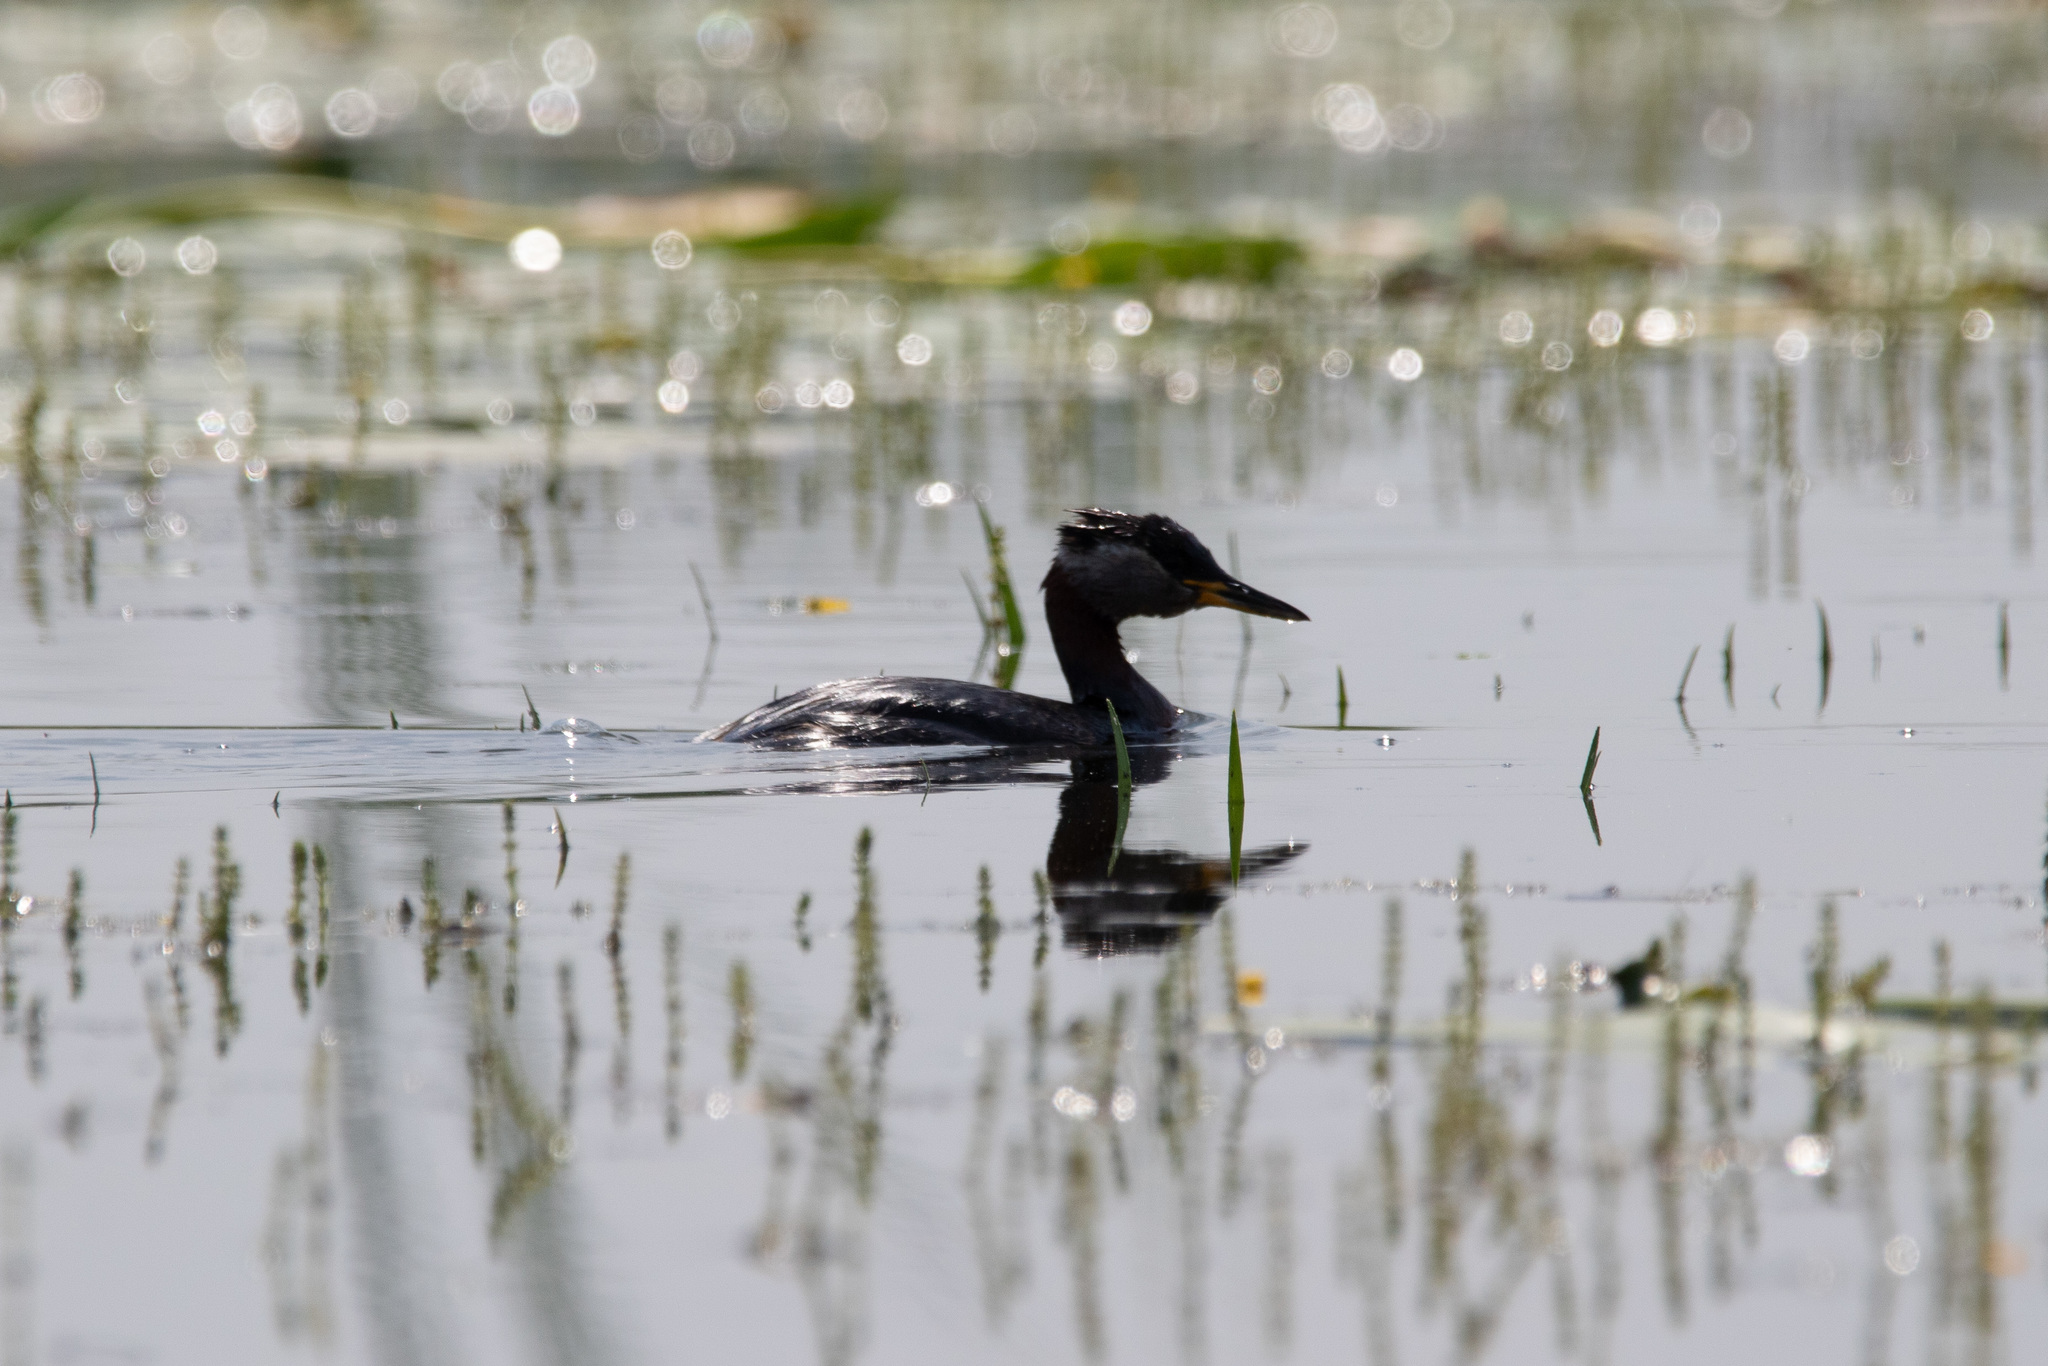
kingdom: Animalia
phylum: Chordata
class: Aves
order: Podicipediformes
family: Podicipedidae
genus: Podiceps
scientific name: Podiceps grisegena
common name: Red-necked grebe
